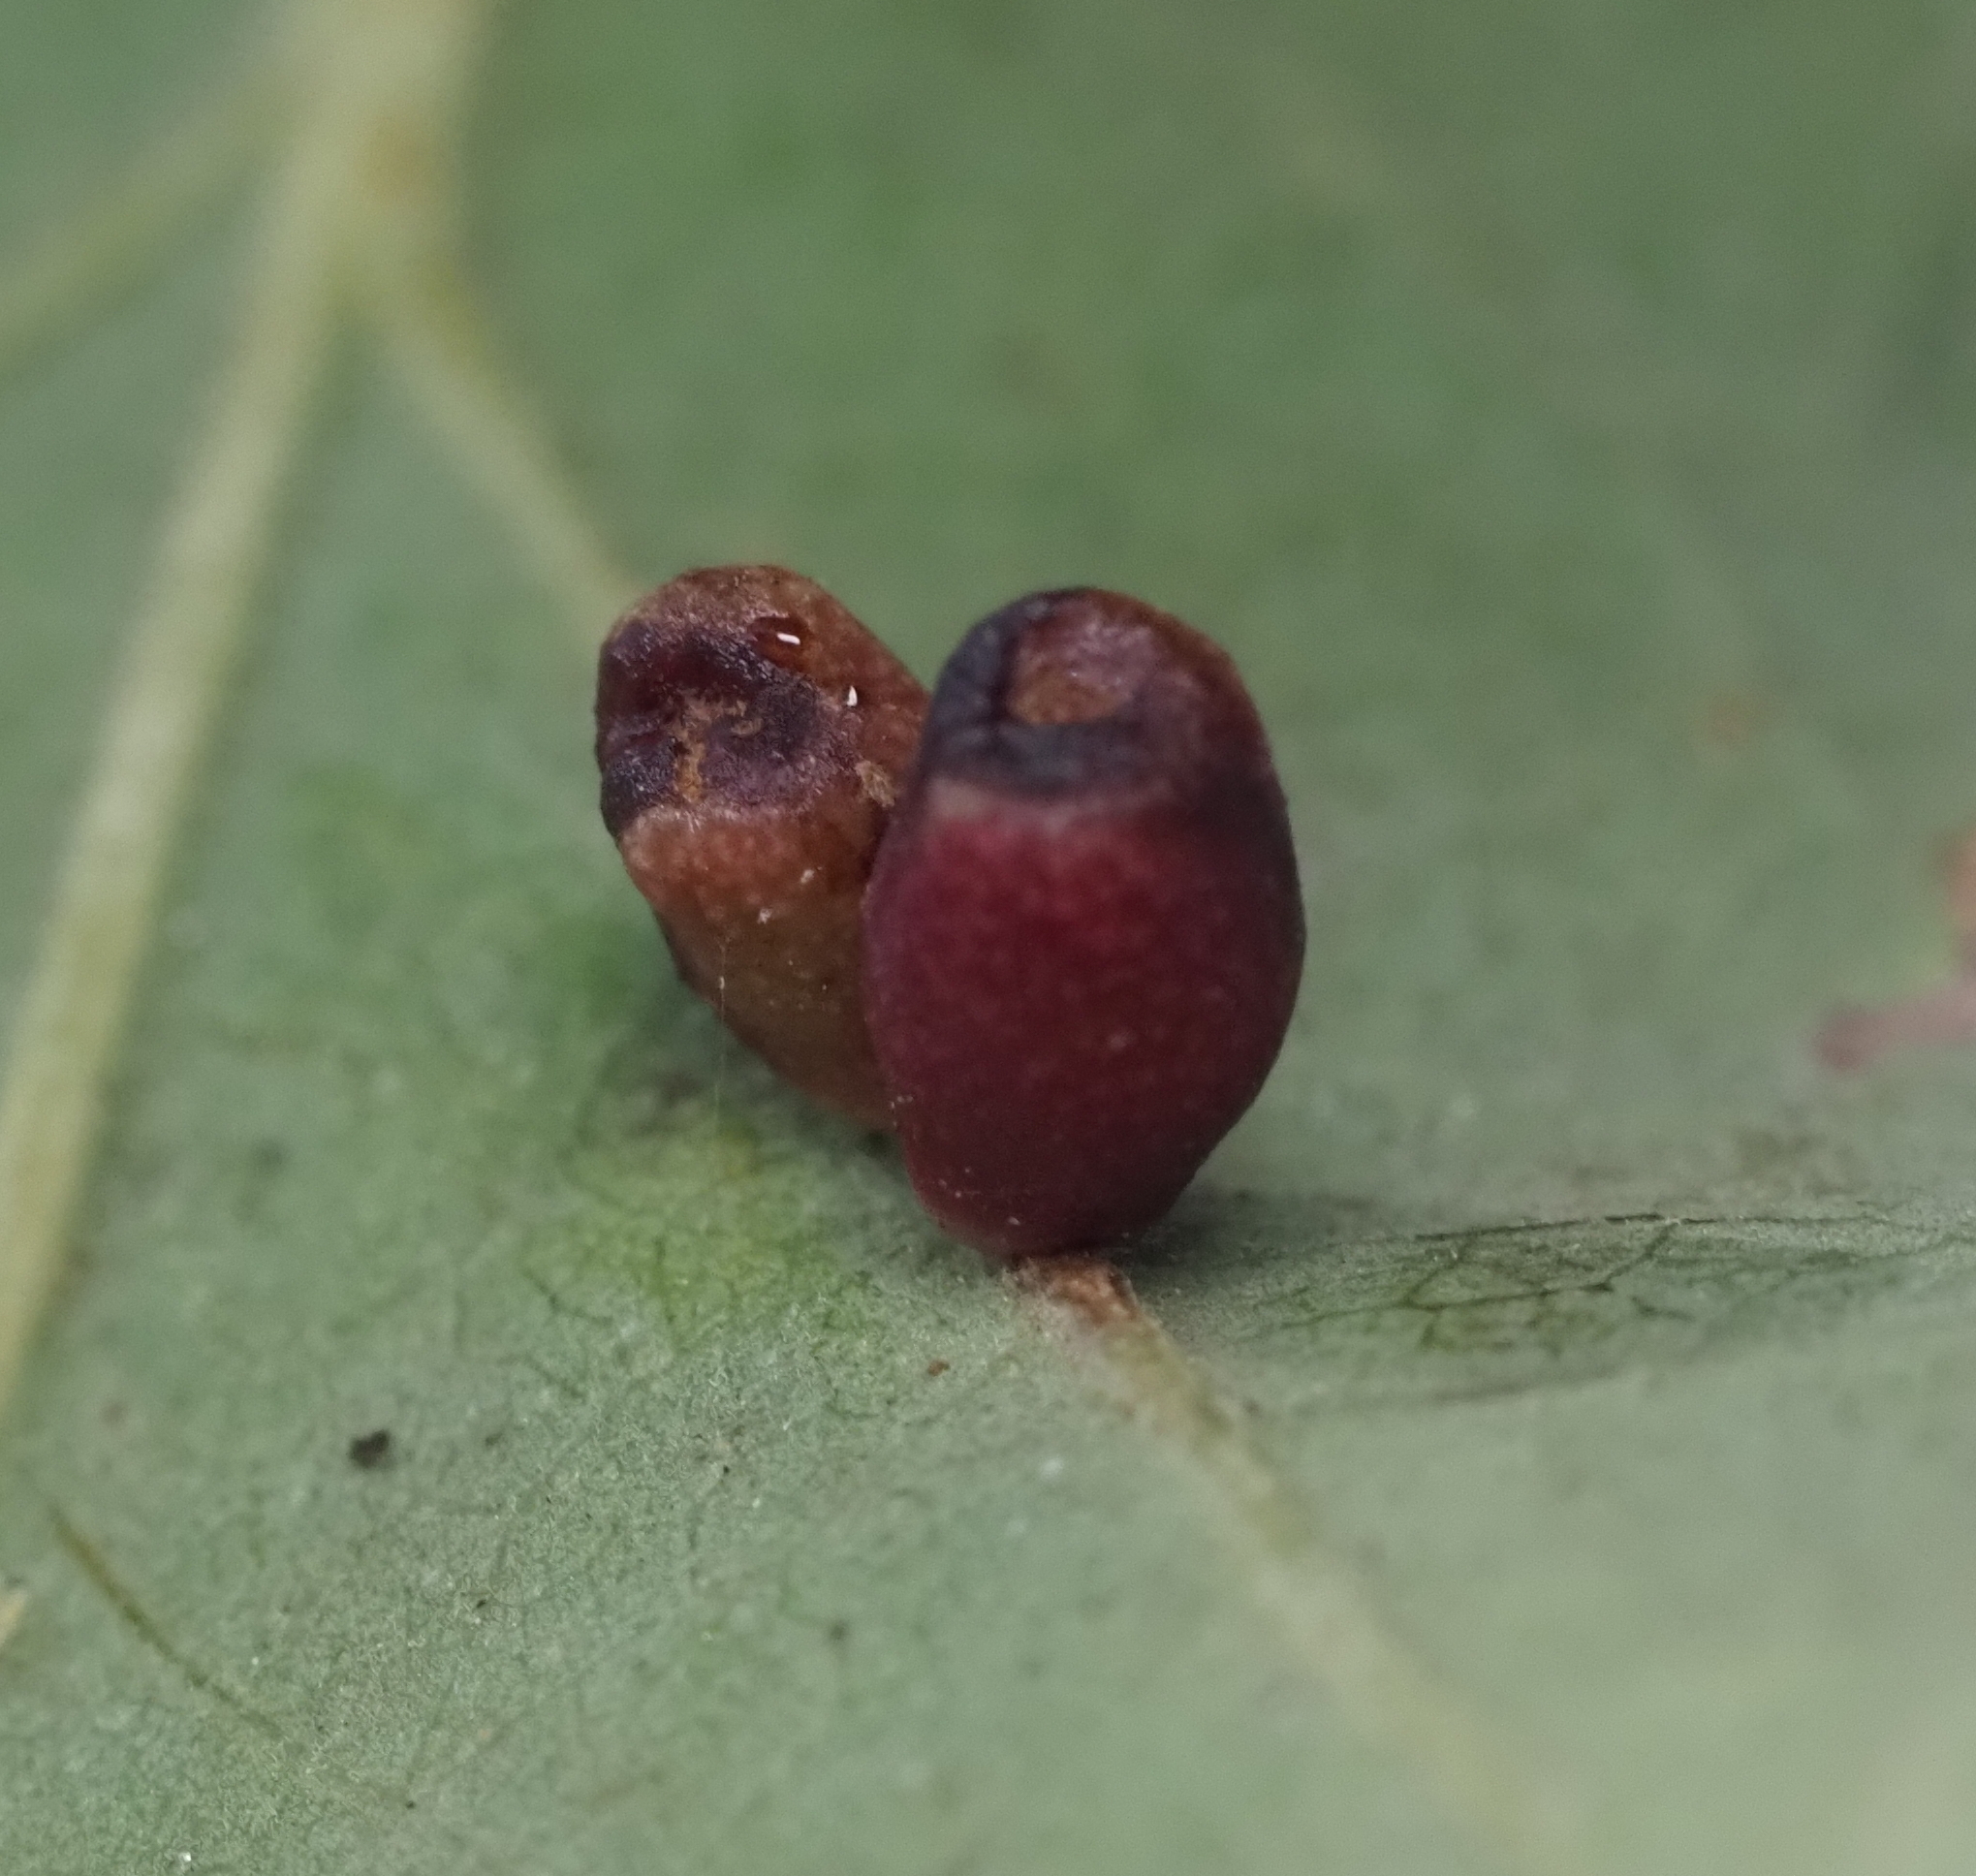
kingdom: Animalia
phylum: Arthropoda
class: Insecta
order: Hymenoptera
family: Cynipidae
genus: Andricus
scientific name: Andricus lustrans
